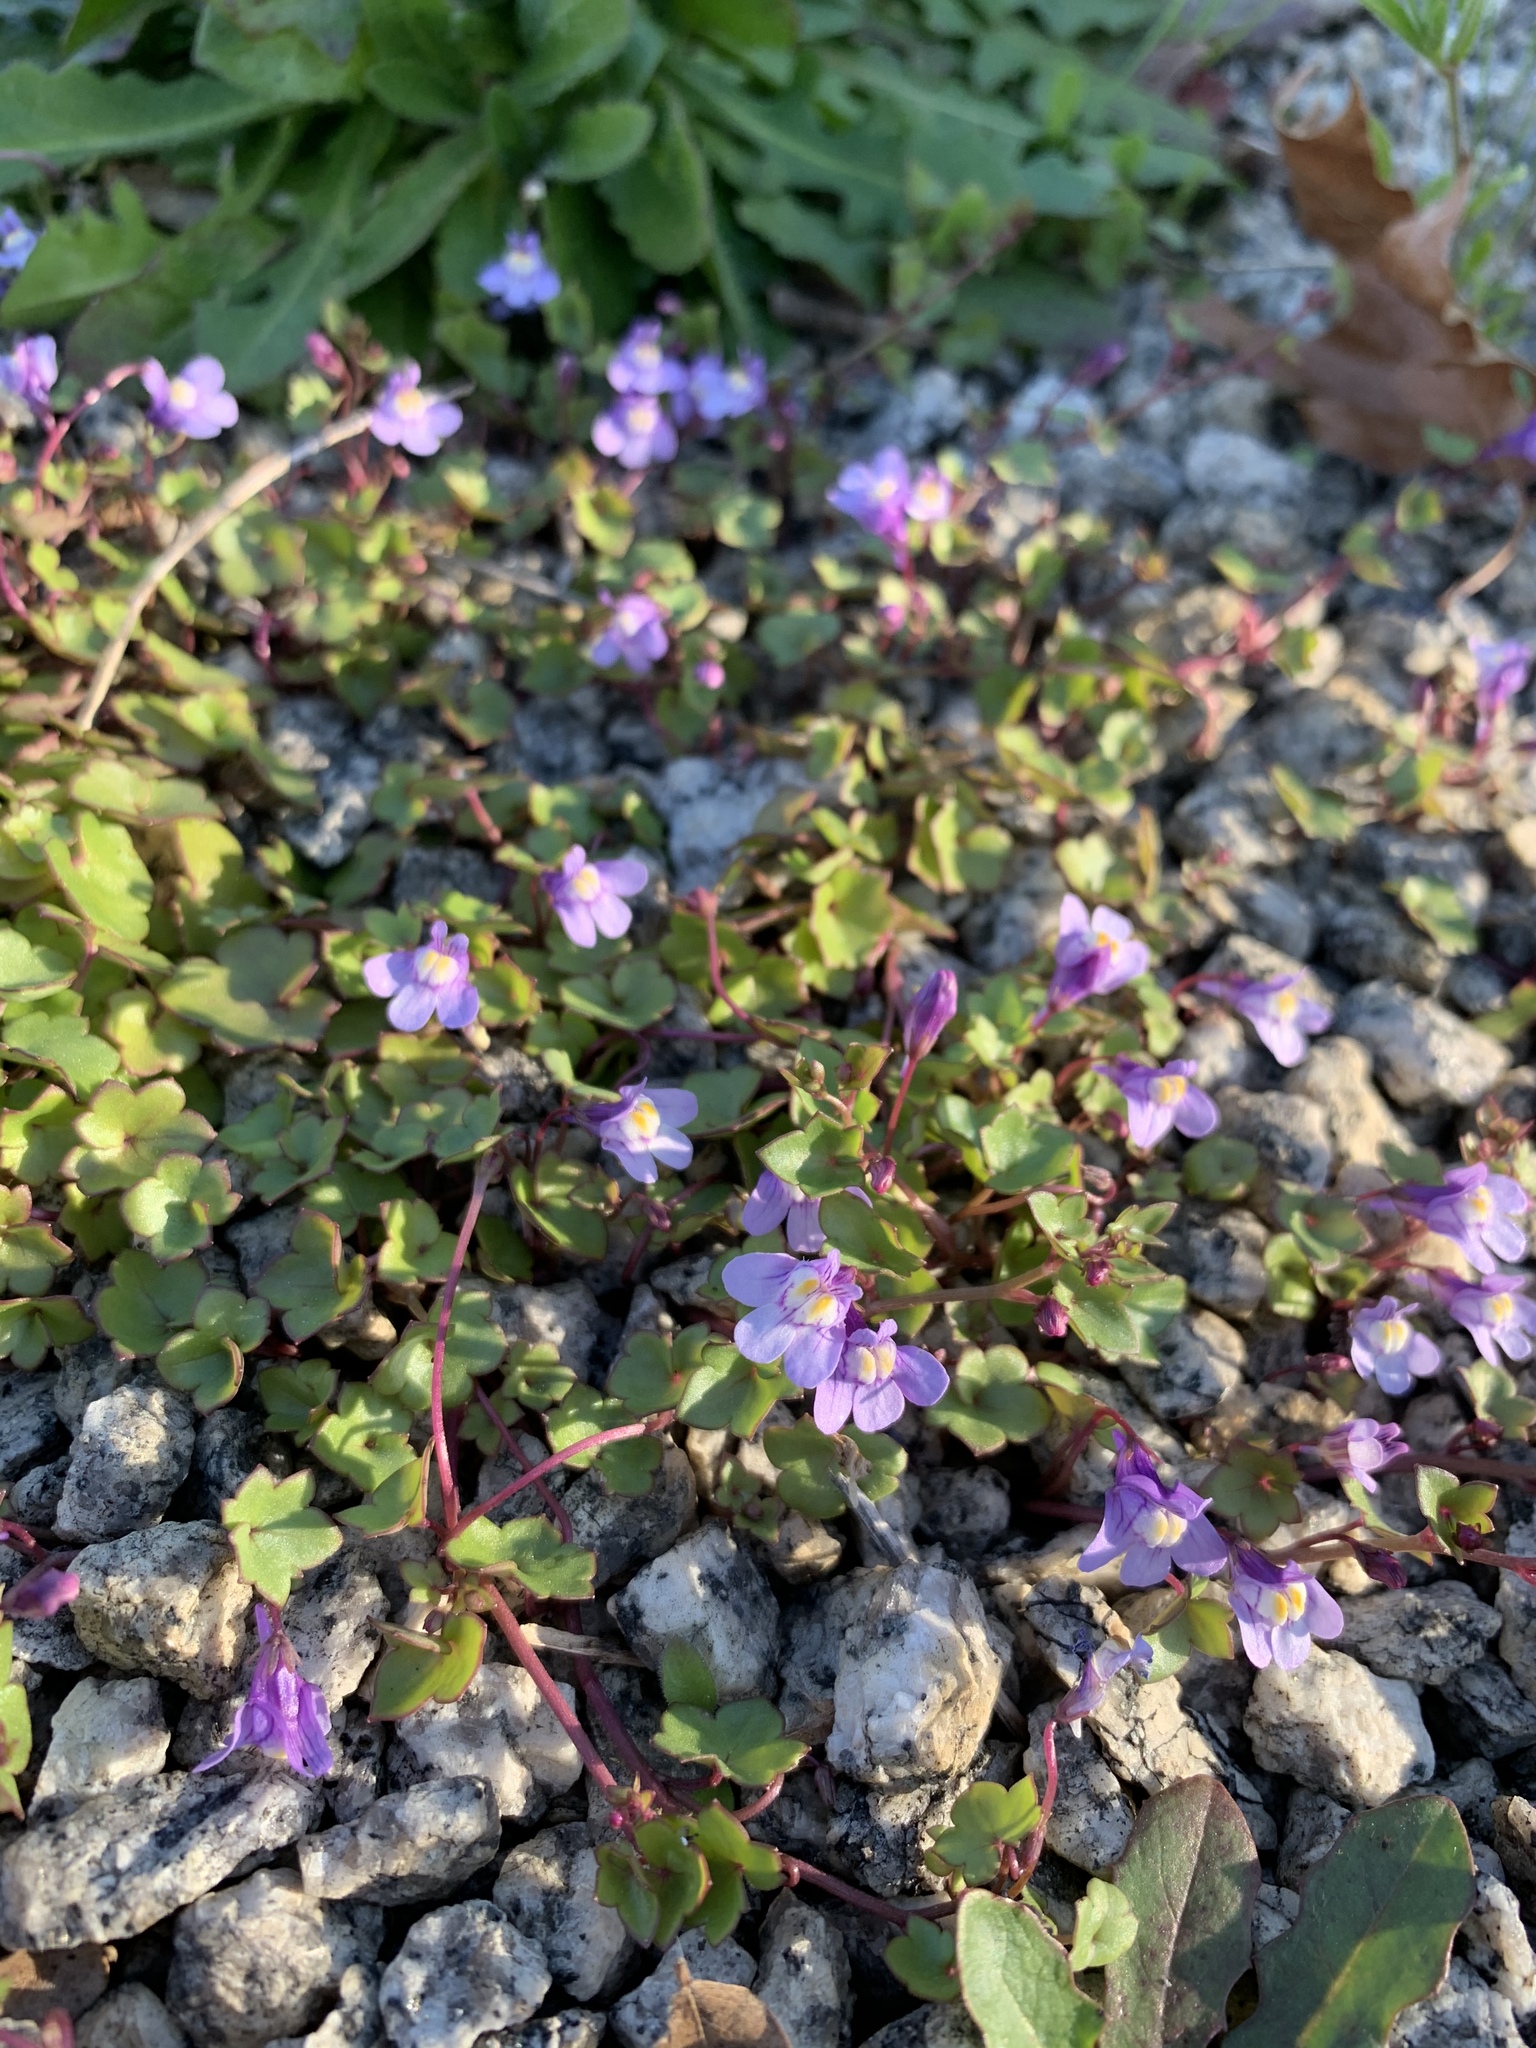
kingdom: Plantae
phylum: Tracheophyta
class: Magnoliopsida
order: Lamiales
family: Plantaginaceae
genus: Cymbalaria
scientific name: Cymbalaria muralis
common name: Ivy-leaved toadflax
